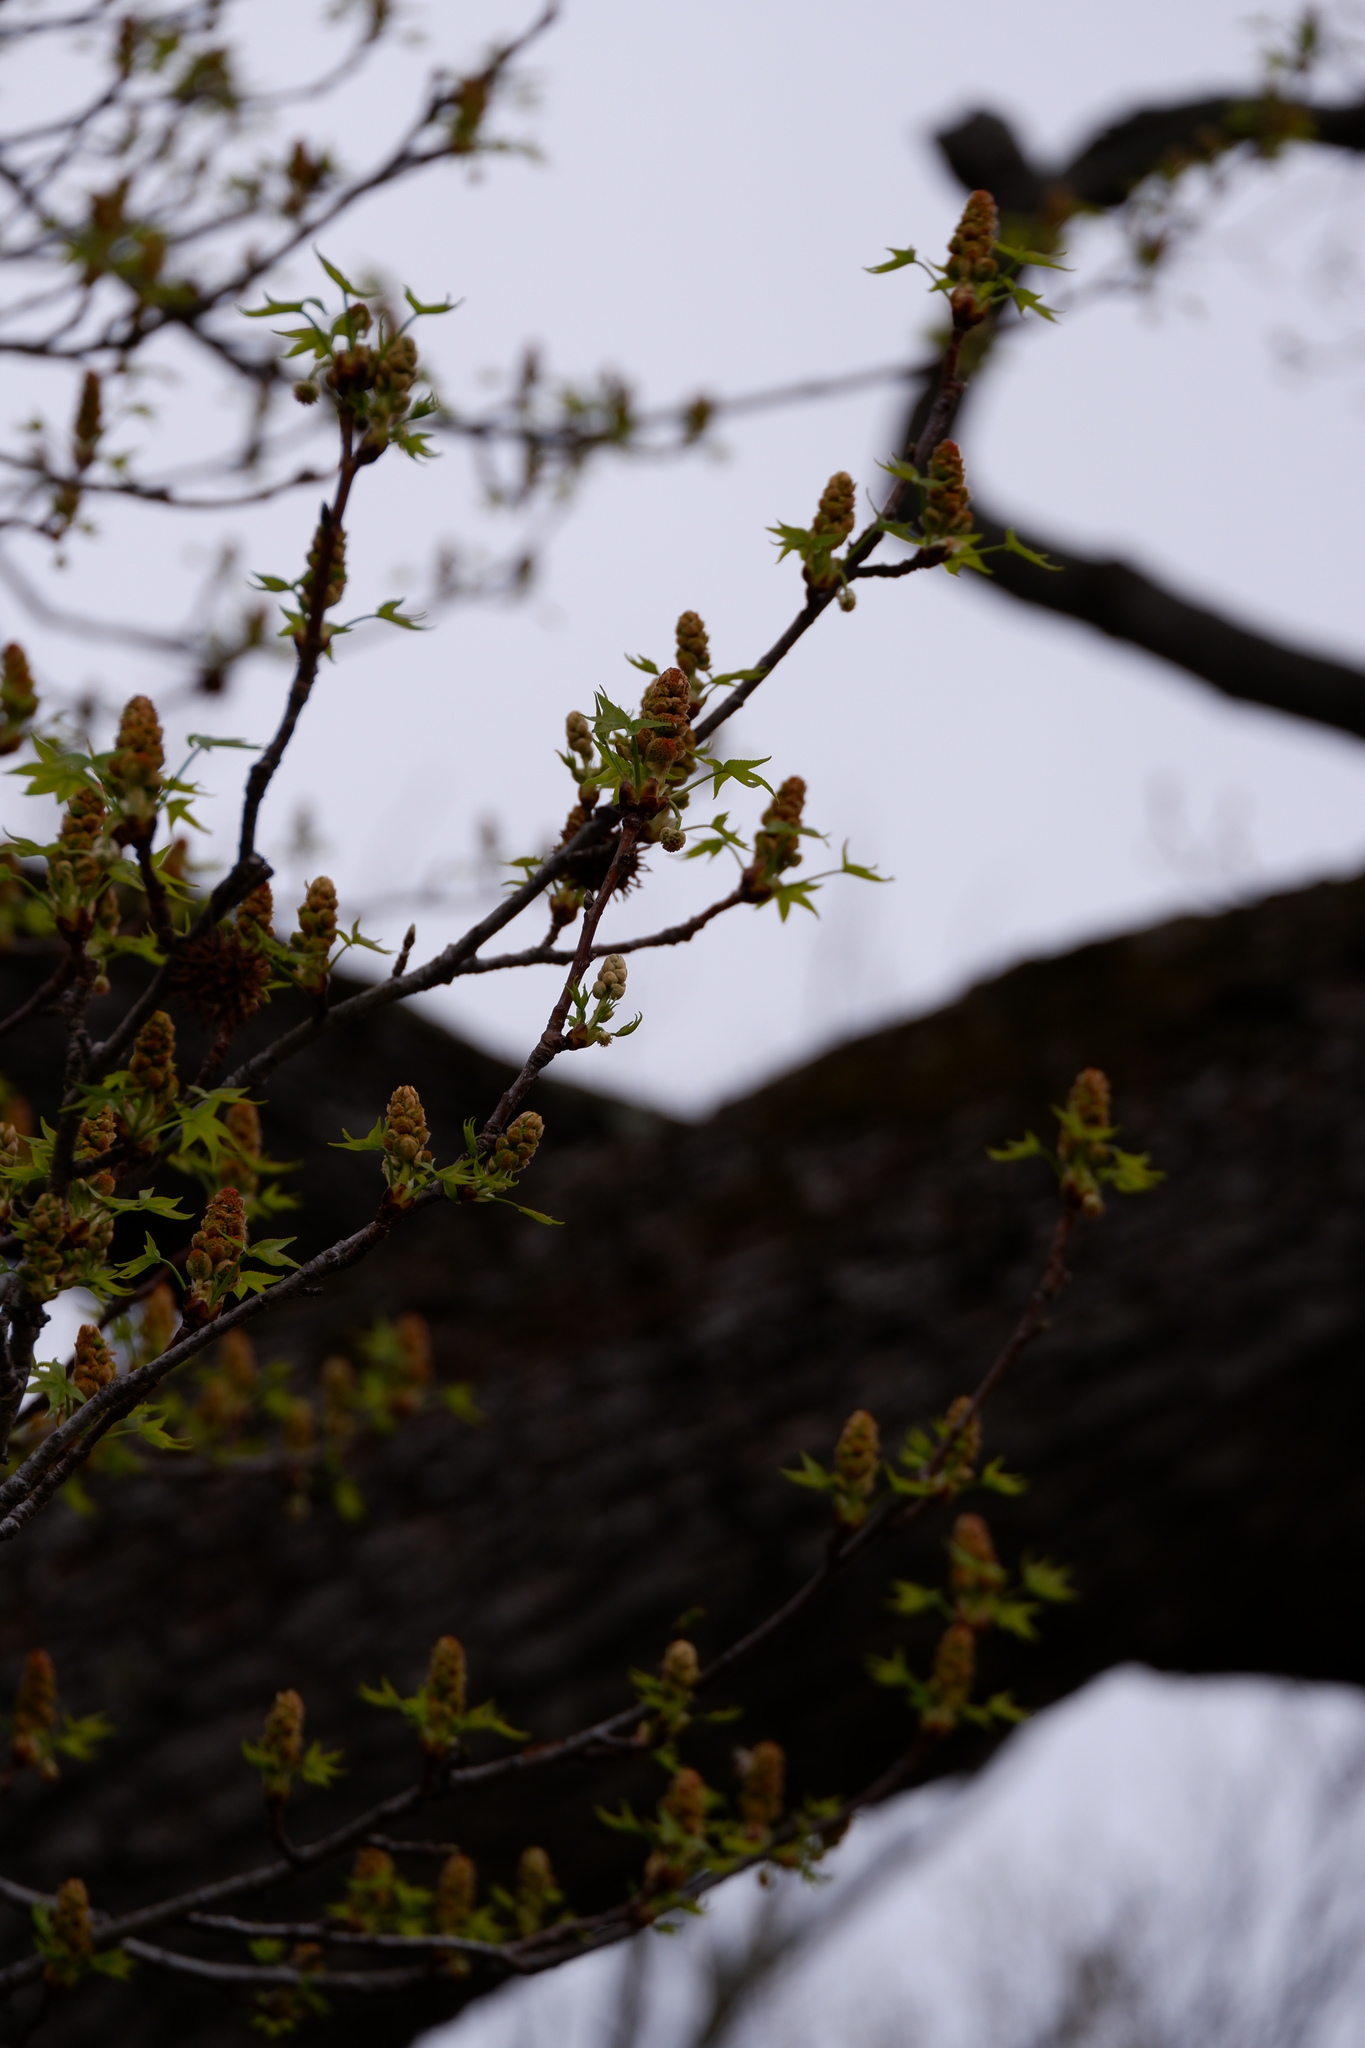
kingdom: Plantae
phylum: Tracheophyta
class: Magnoliopsida
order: Saxifragales
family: Altingiaceae
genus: Liquidambar
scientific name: Liquidambar styraciflua
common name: Sweet gum
